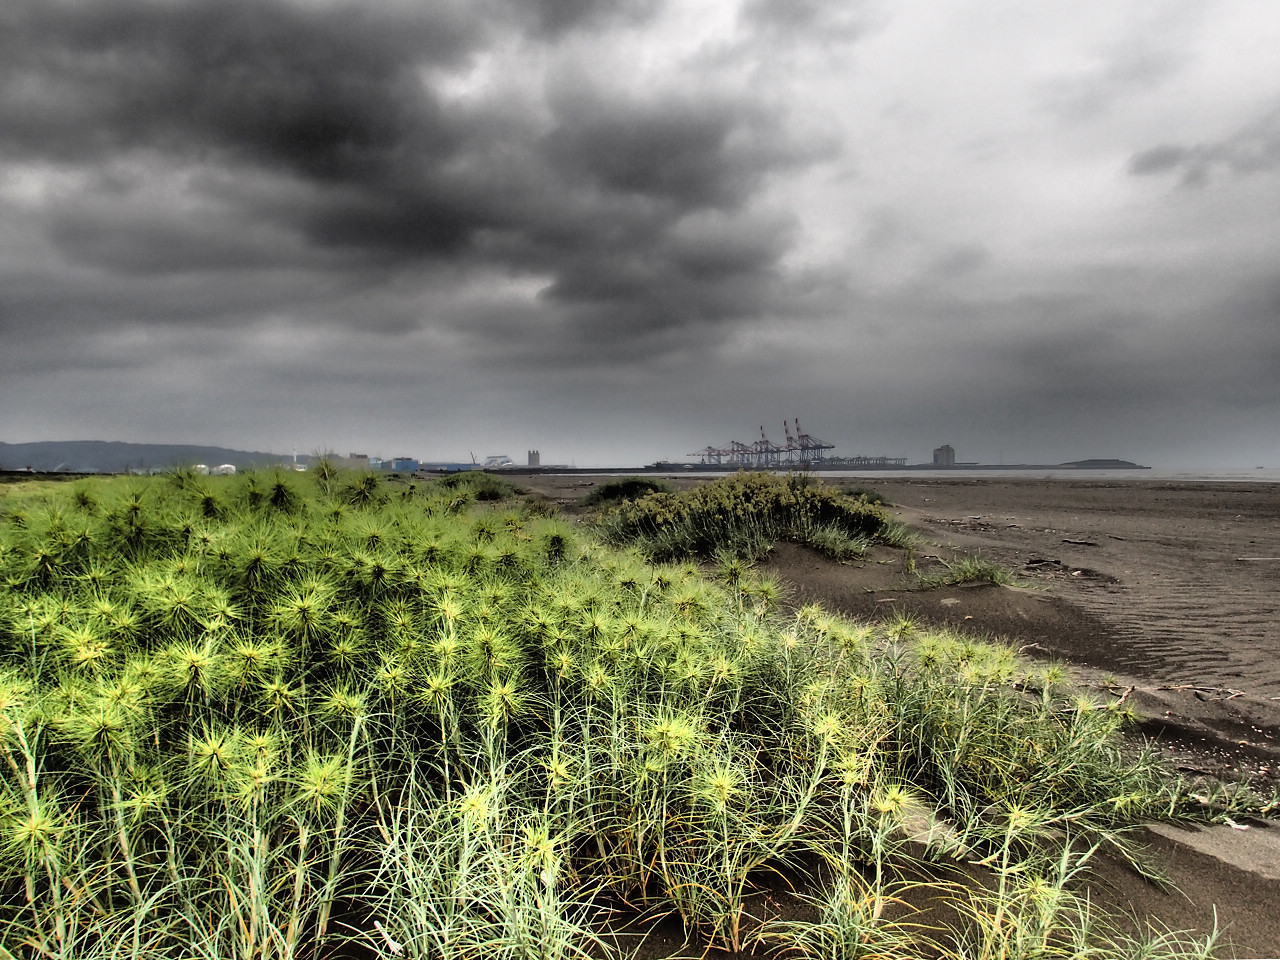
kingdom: Plantae
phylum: Tracheophyta
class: Liliopsida
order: Poales
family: Poaceae
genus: Spinifex
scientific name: Spinifex littoreus
